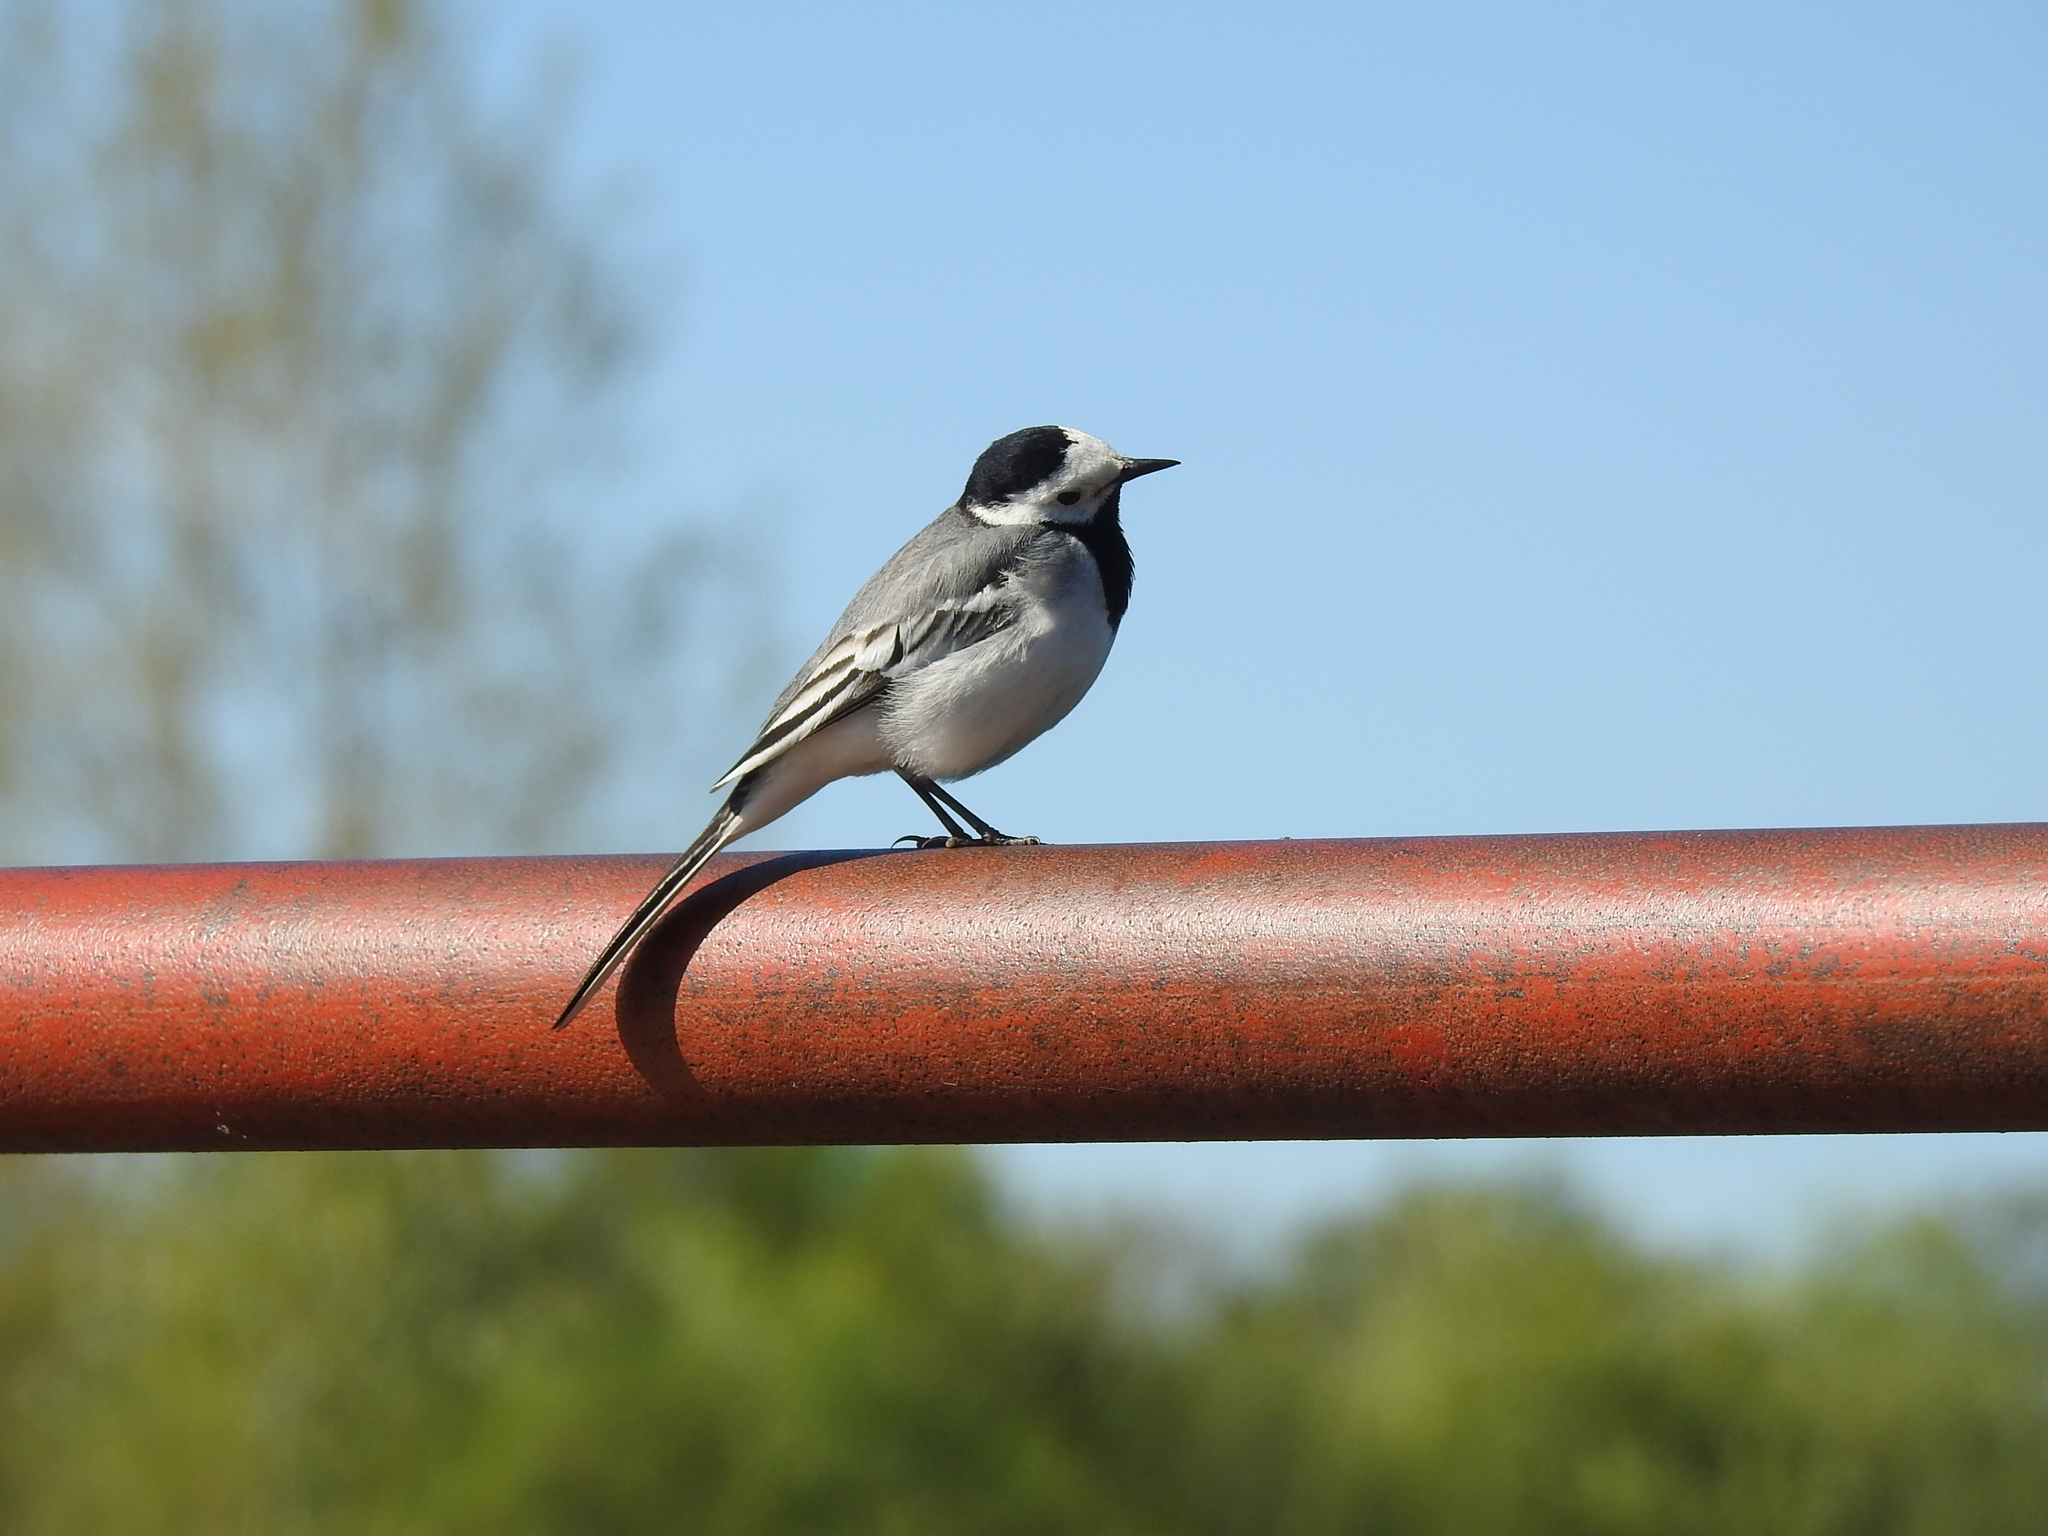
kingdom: Animalia
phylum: Chordata
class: Aves
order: Passeriformes
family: Motacillidae
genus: Motacilla
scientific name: Motacilla alba
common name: White wagtail
